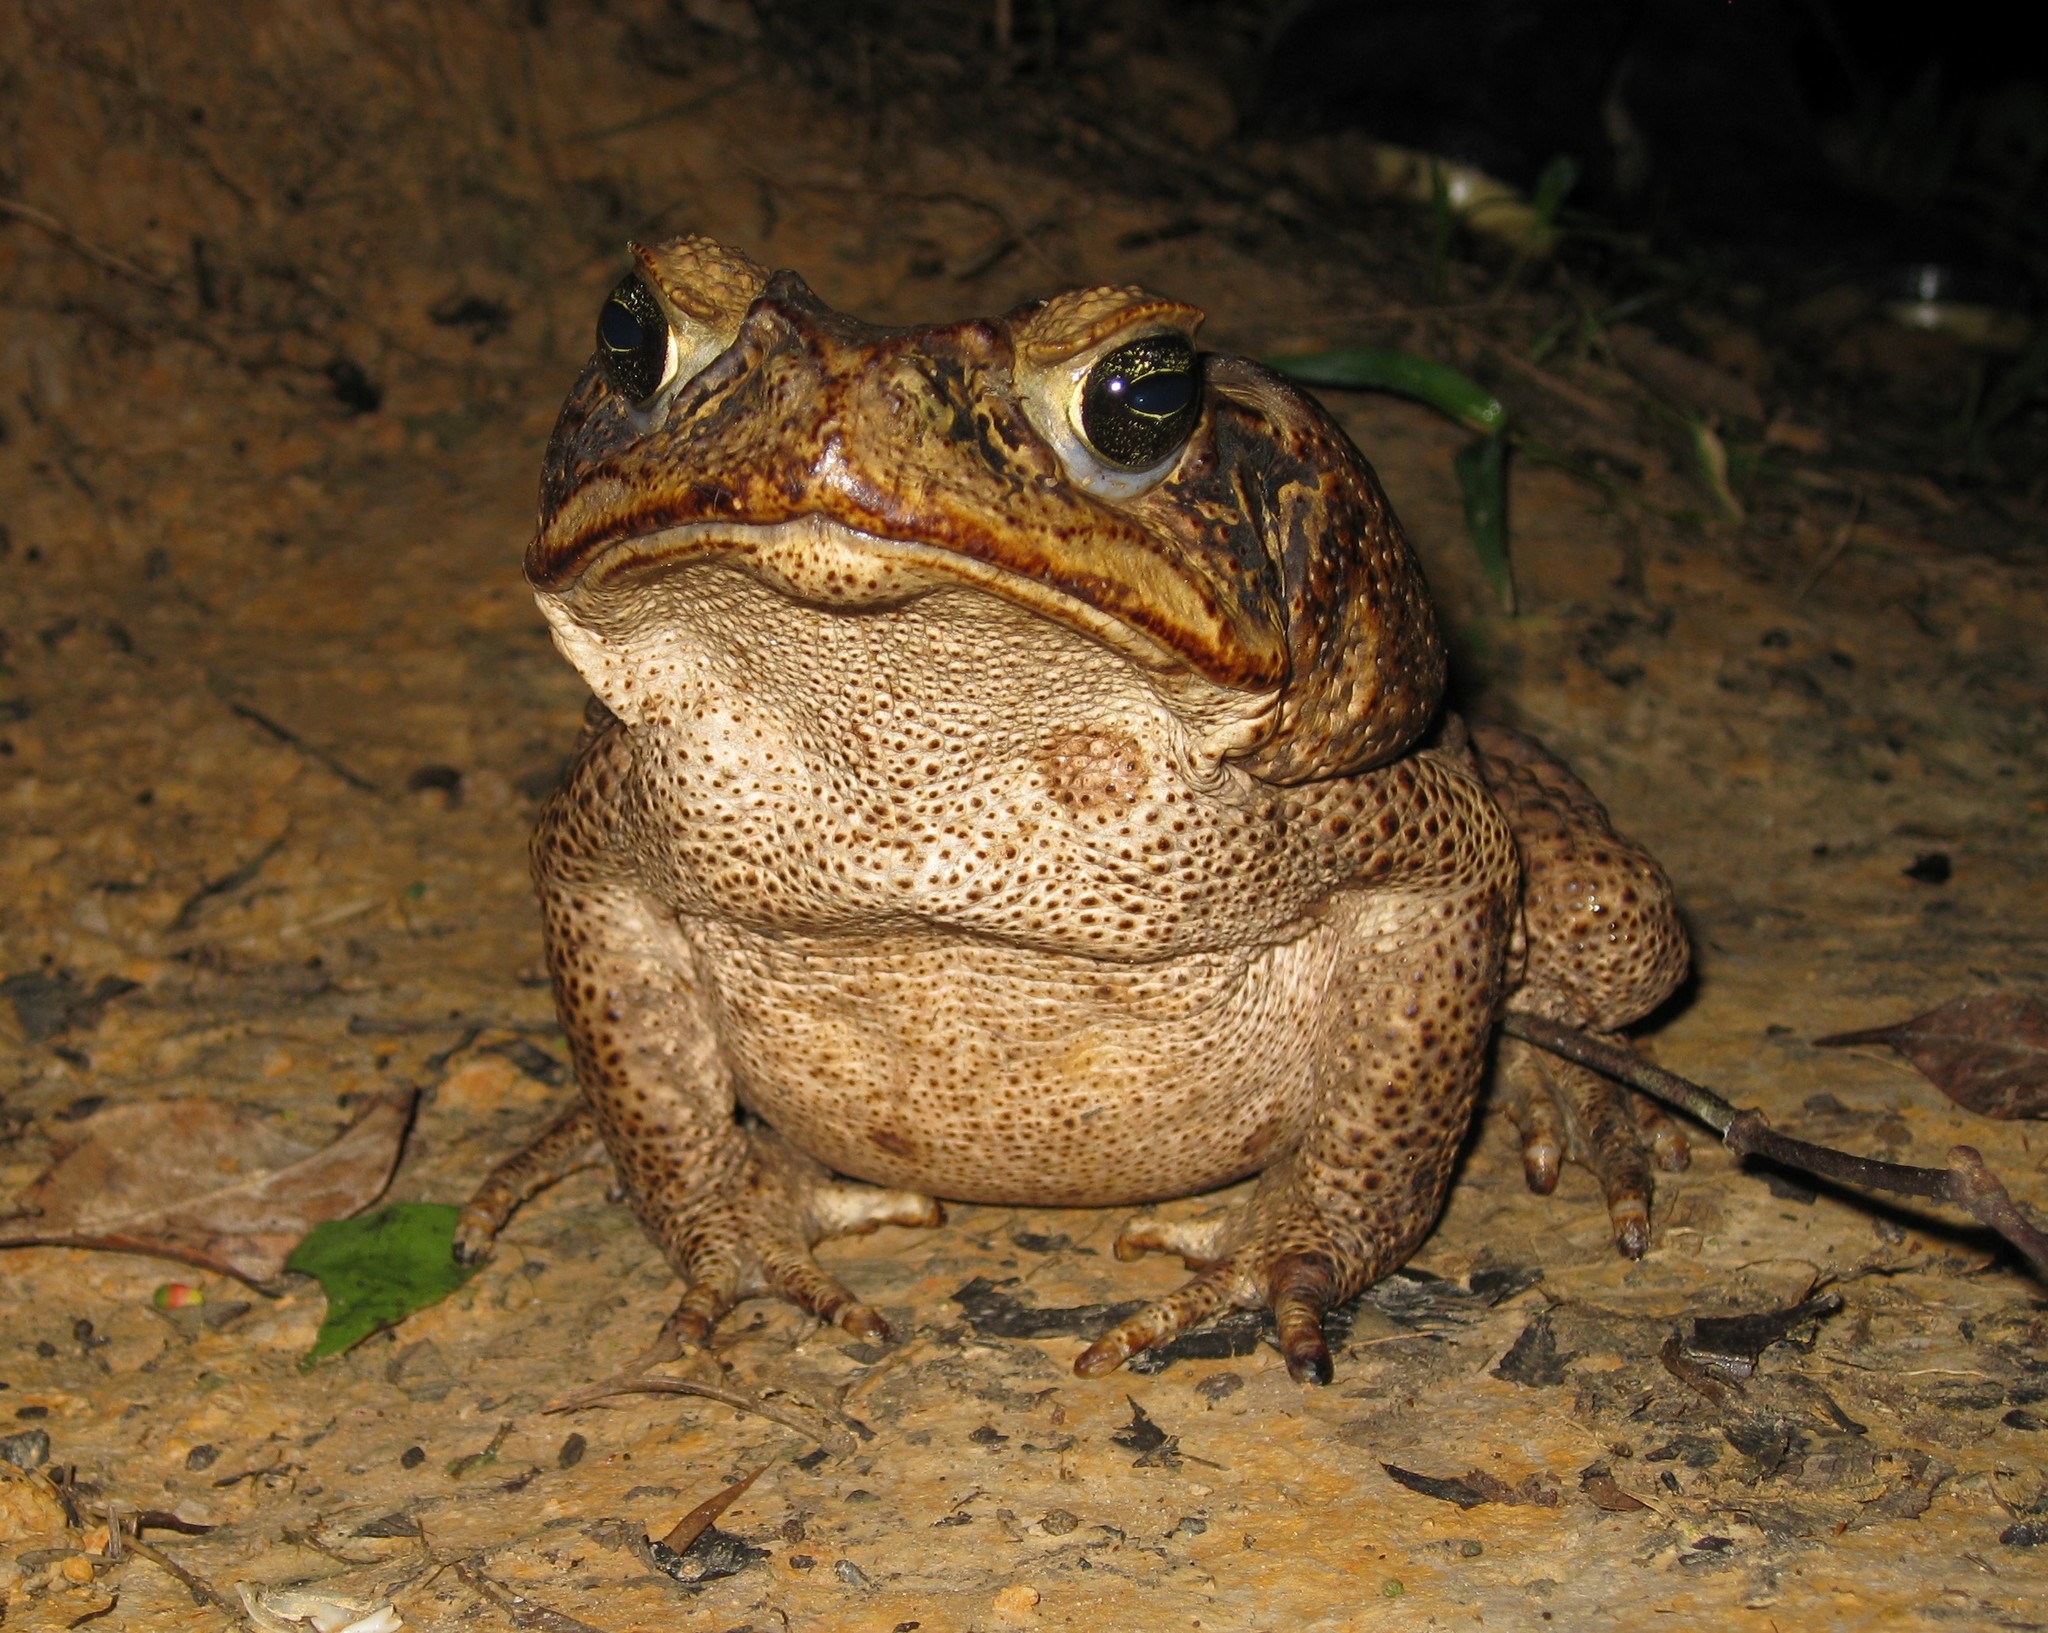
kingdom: Animalia
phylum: Chordata
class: Amphibia
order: Anura
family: Bufonidae
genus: Rhinella
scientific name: Rhinella marina
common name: Cane toad
